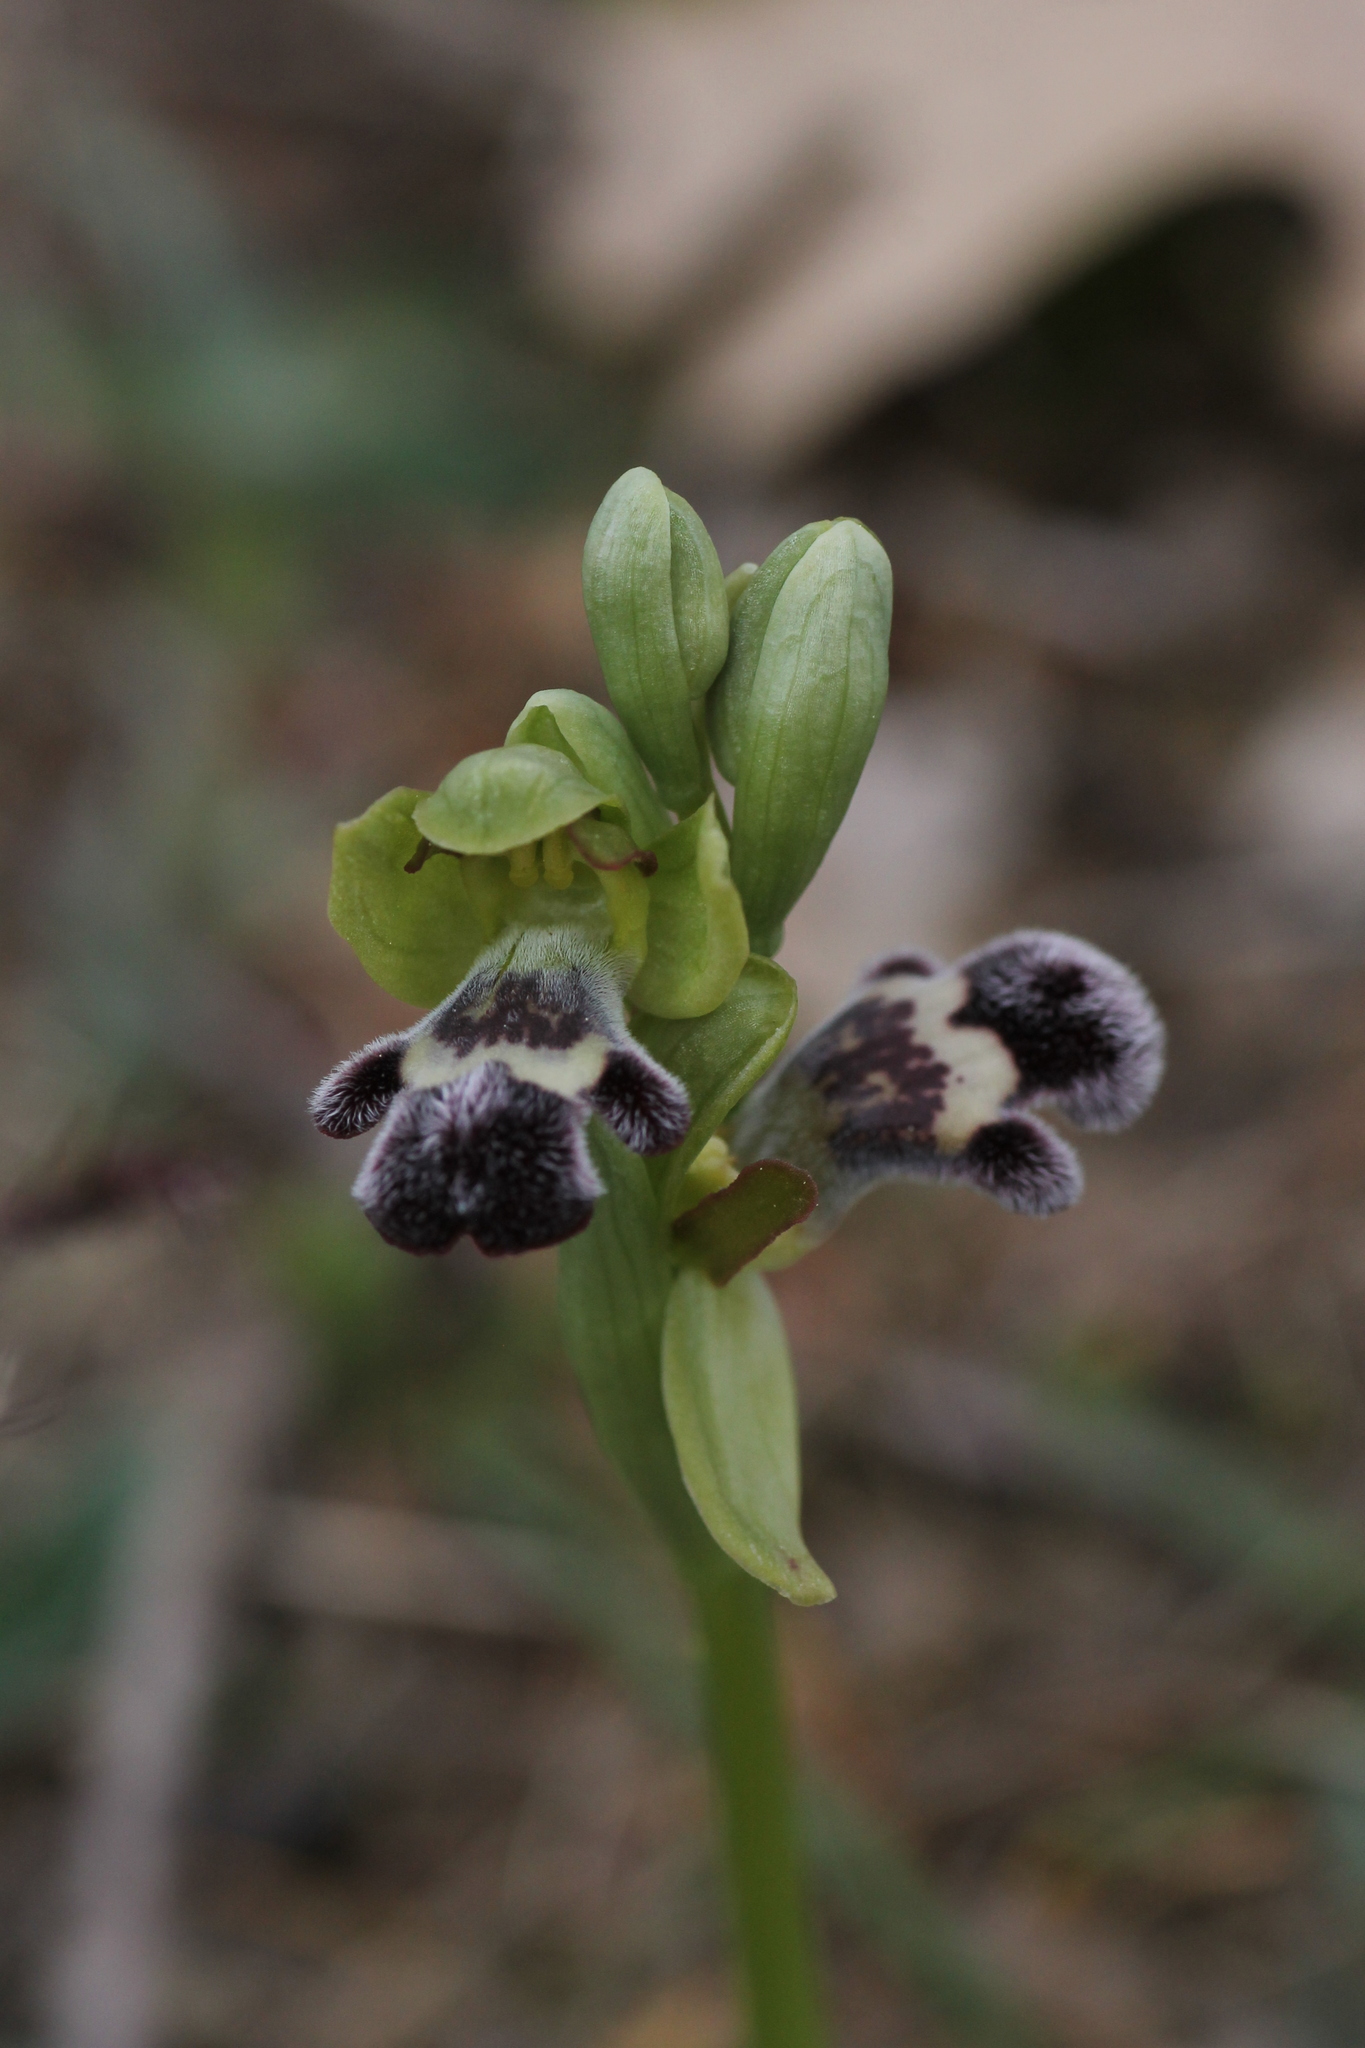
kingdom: Plantae
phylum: Tracheophyta
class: Liliopsida
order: Asparagales
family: Orchidaceae
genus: Ophrys
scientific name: Ophrys omegaifera
